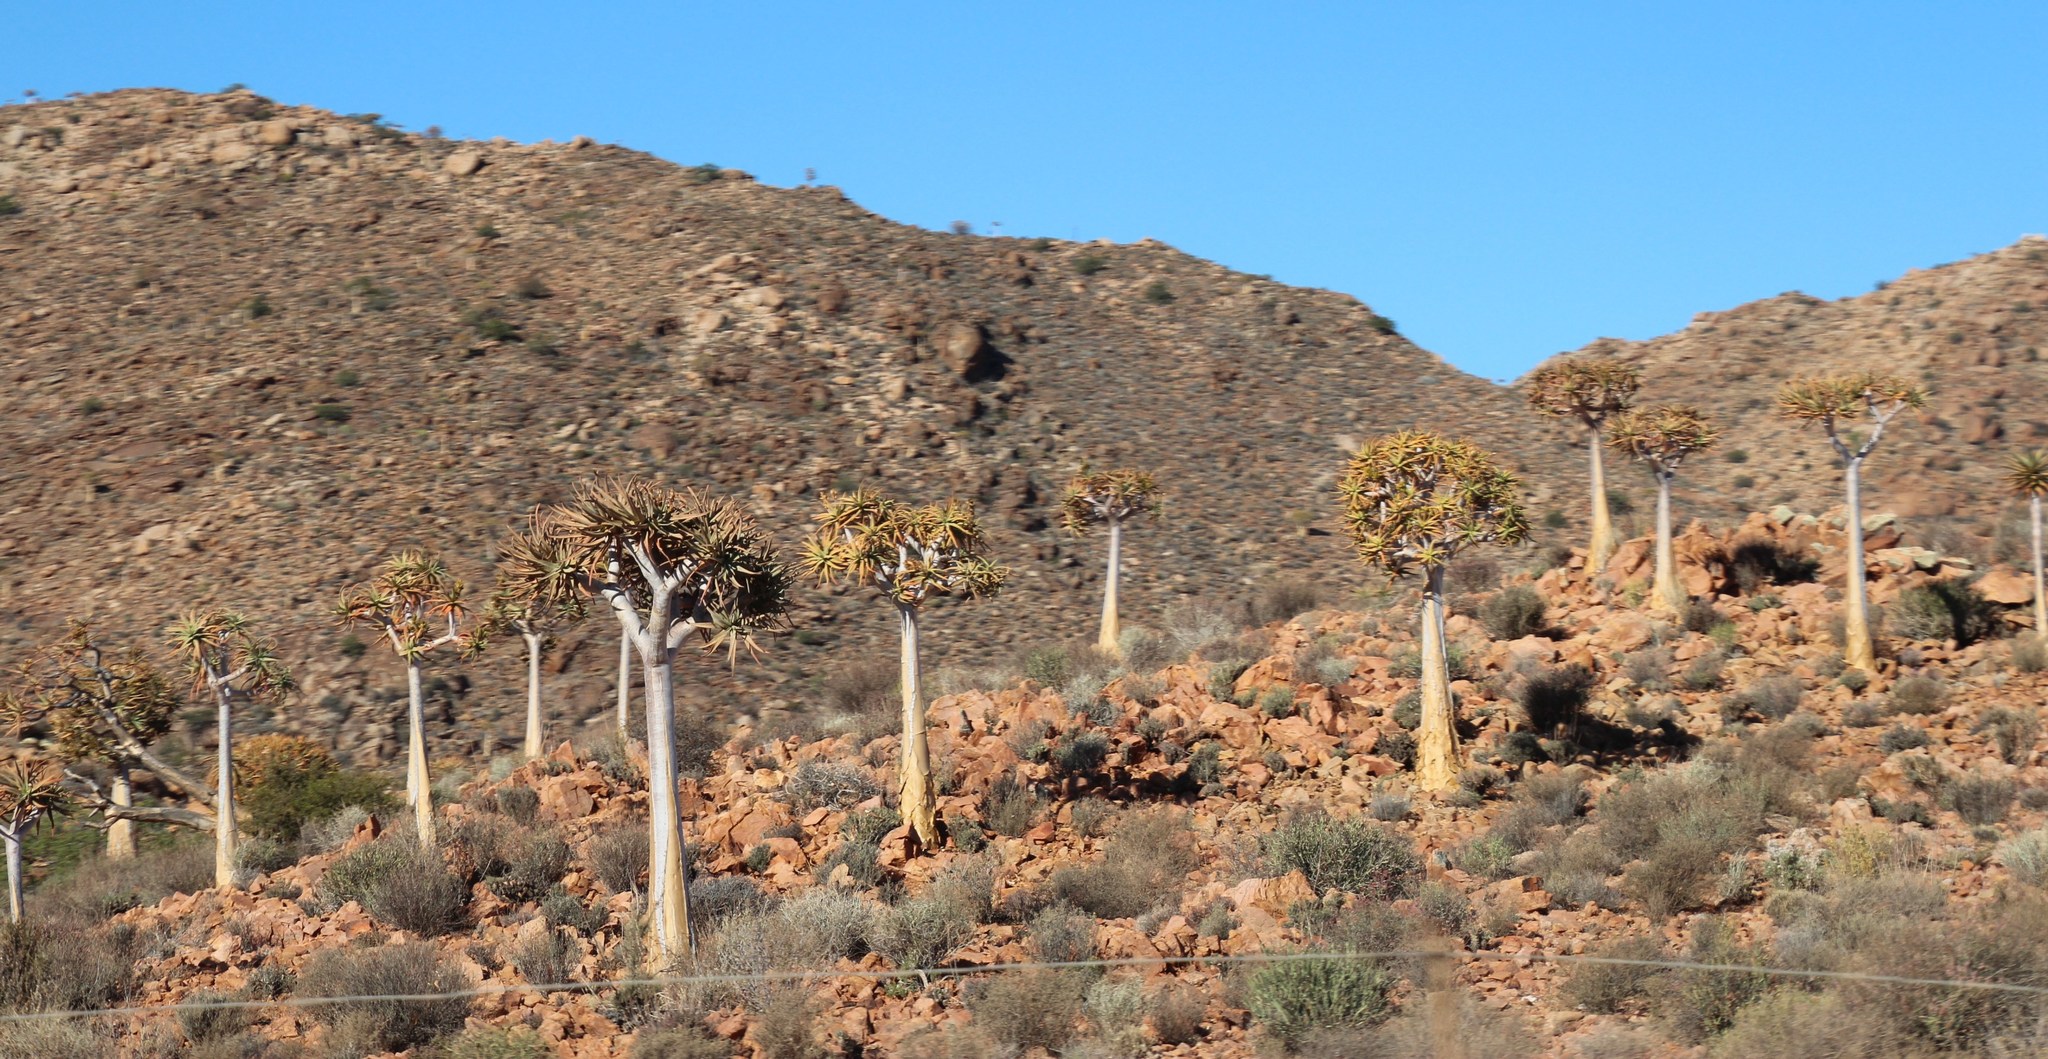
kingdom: Plantae
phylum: Tracheophyta
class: Liliopsida
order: Asparagales
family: Asphodelaceae
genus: Aloidendron
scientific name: Aloidendron dichotomum
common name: Quiver tree
